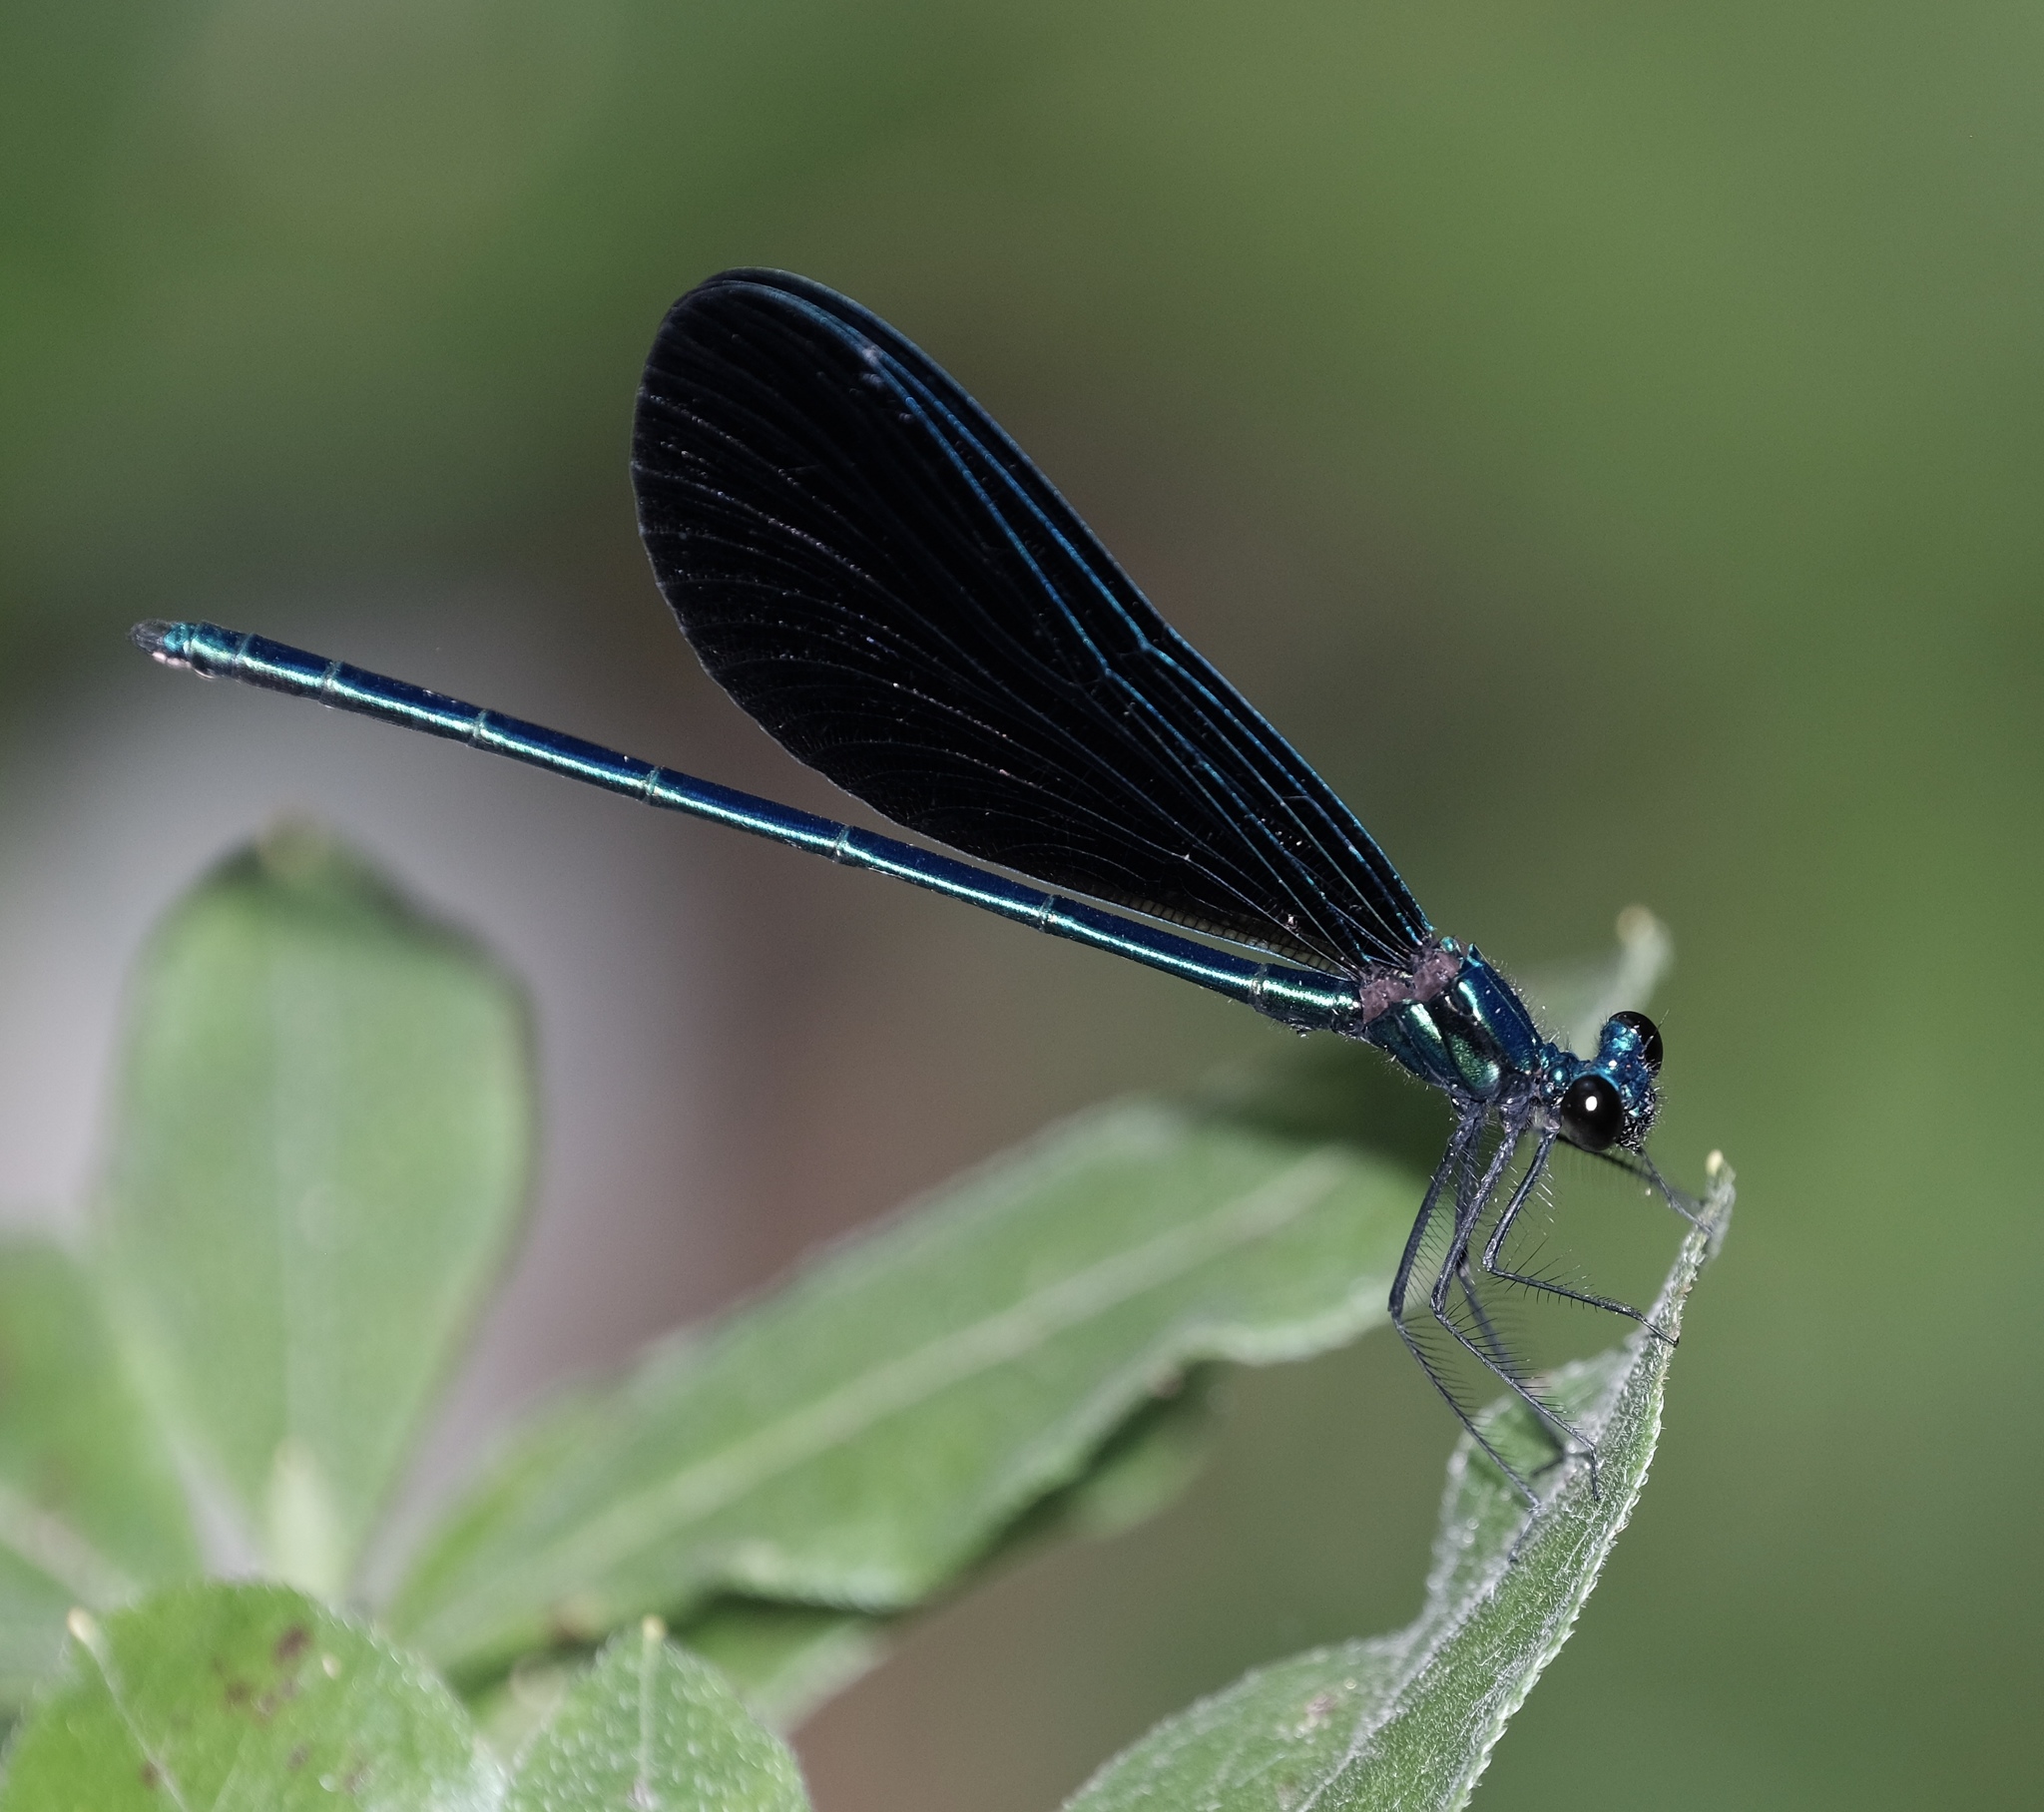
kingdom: Animalia
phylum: Arthropoda
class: Insecta
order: Odonata
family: Calopterygidae
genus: Calopteryx
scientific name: Calopteryx maculata
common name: Ebony jewelwing
